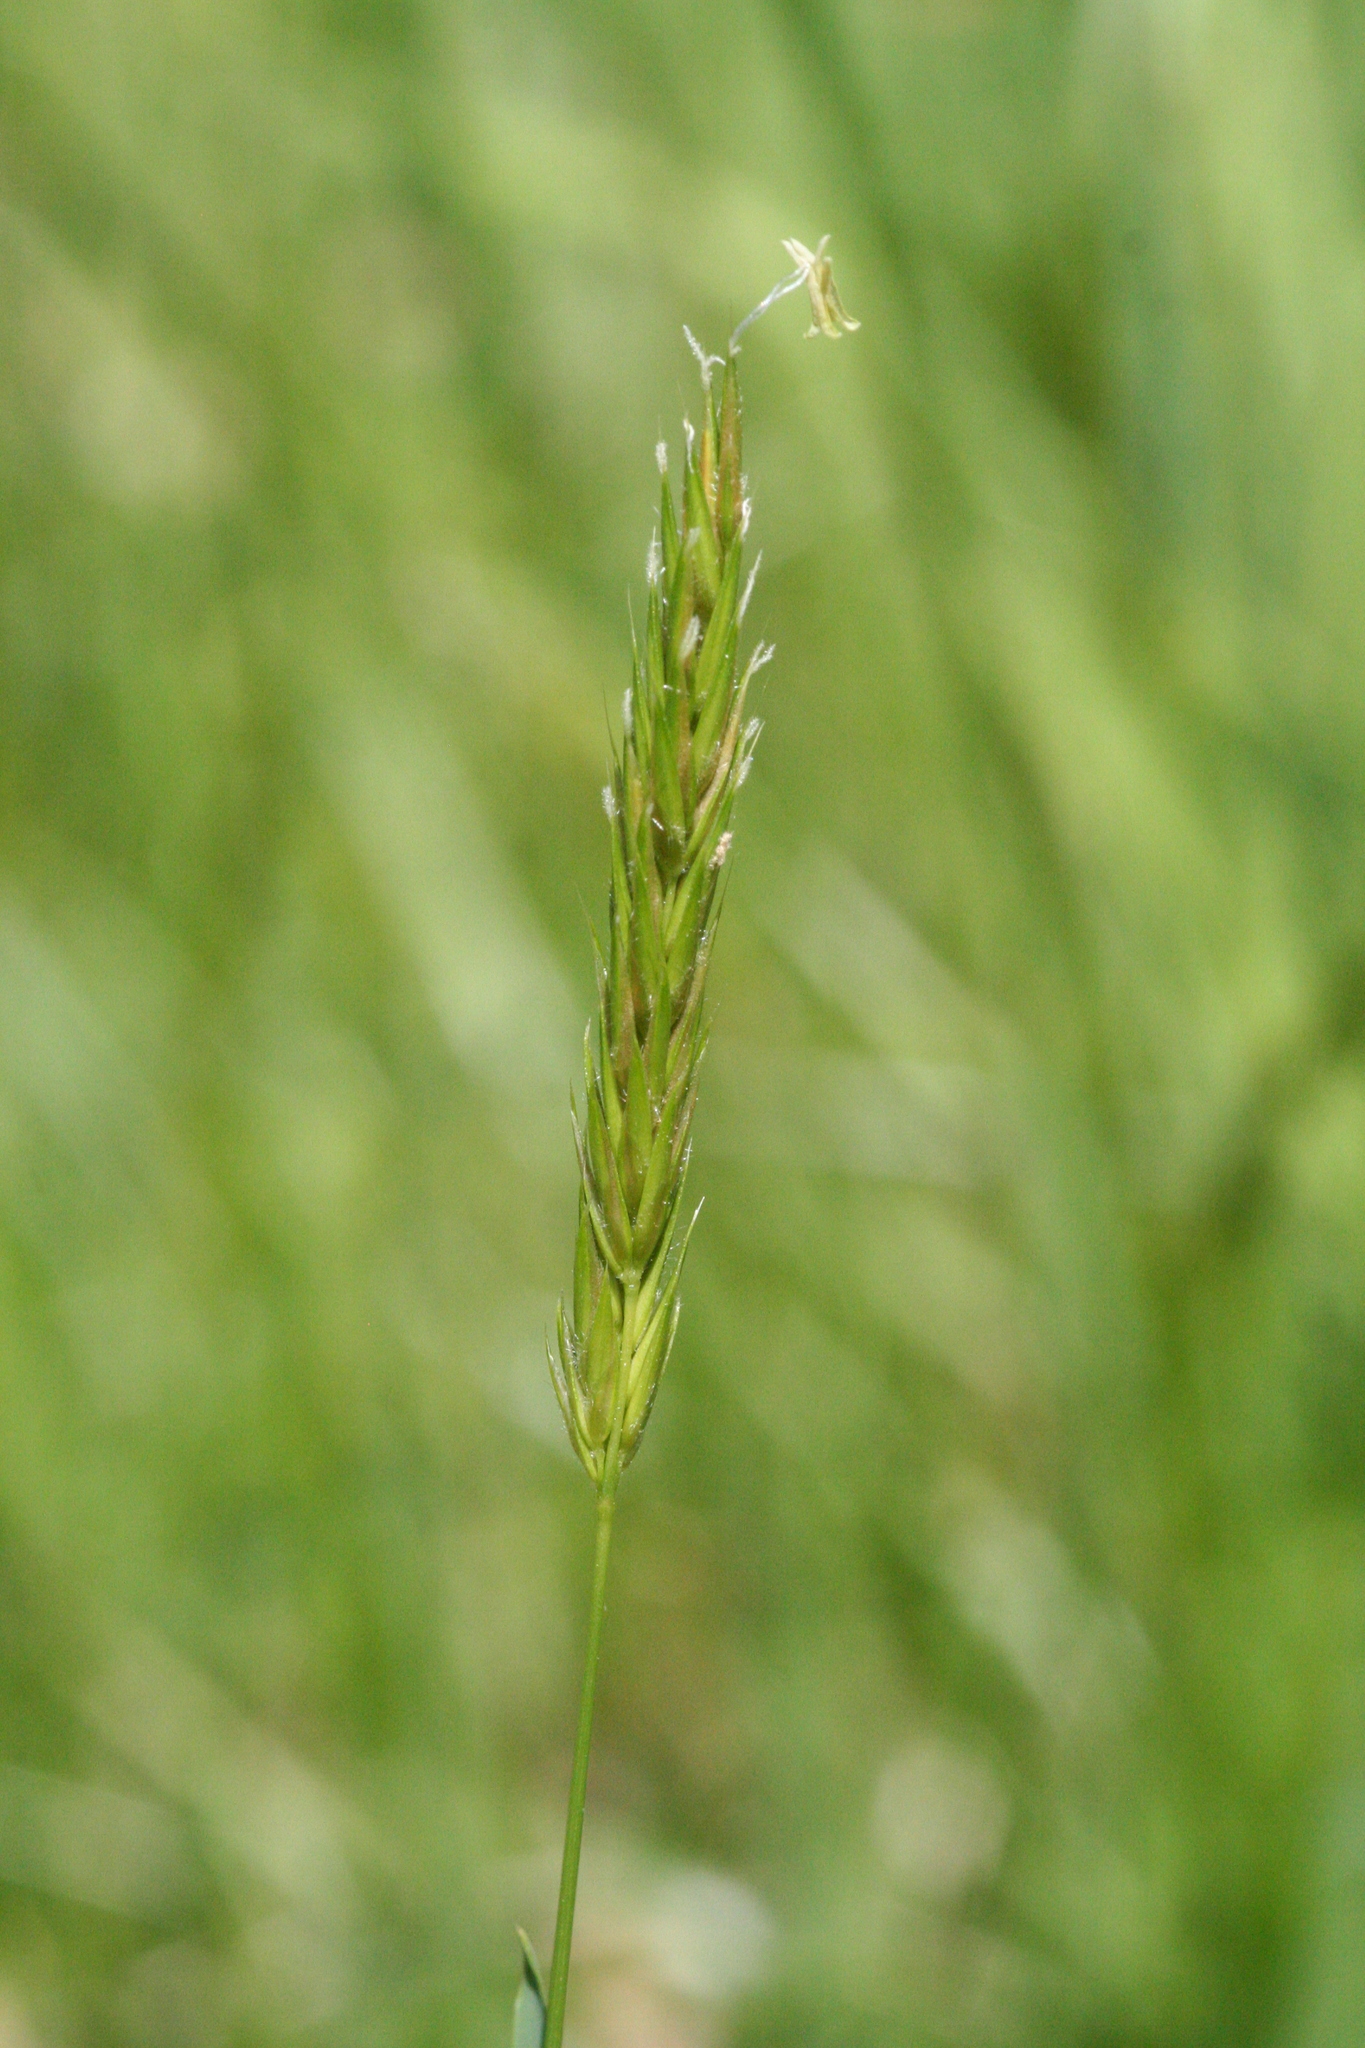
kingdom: Plantae
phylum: Tracheophyta
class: Liliopsida
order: Poales
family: Poaceae
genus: Anthoxanthum
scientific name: Anthoxanthum odoratum
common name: Sweet vernalgrass
